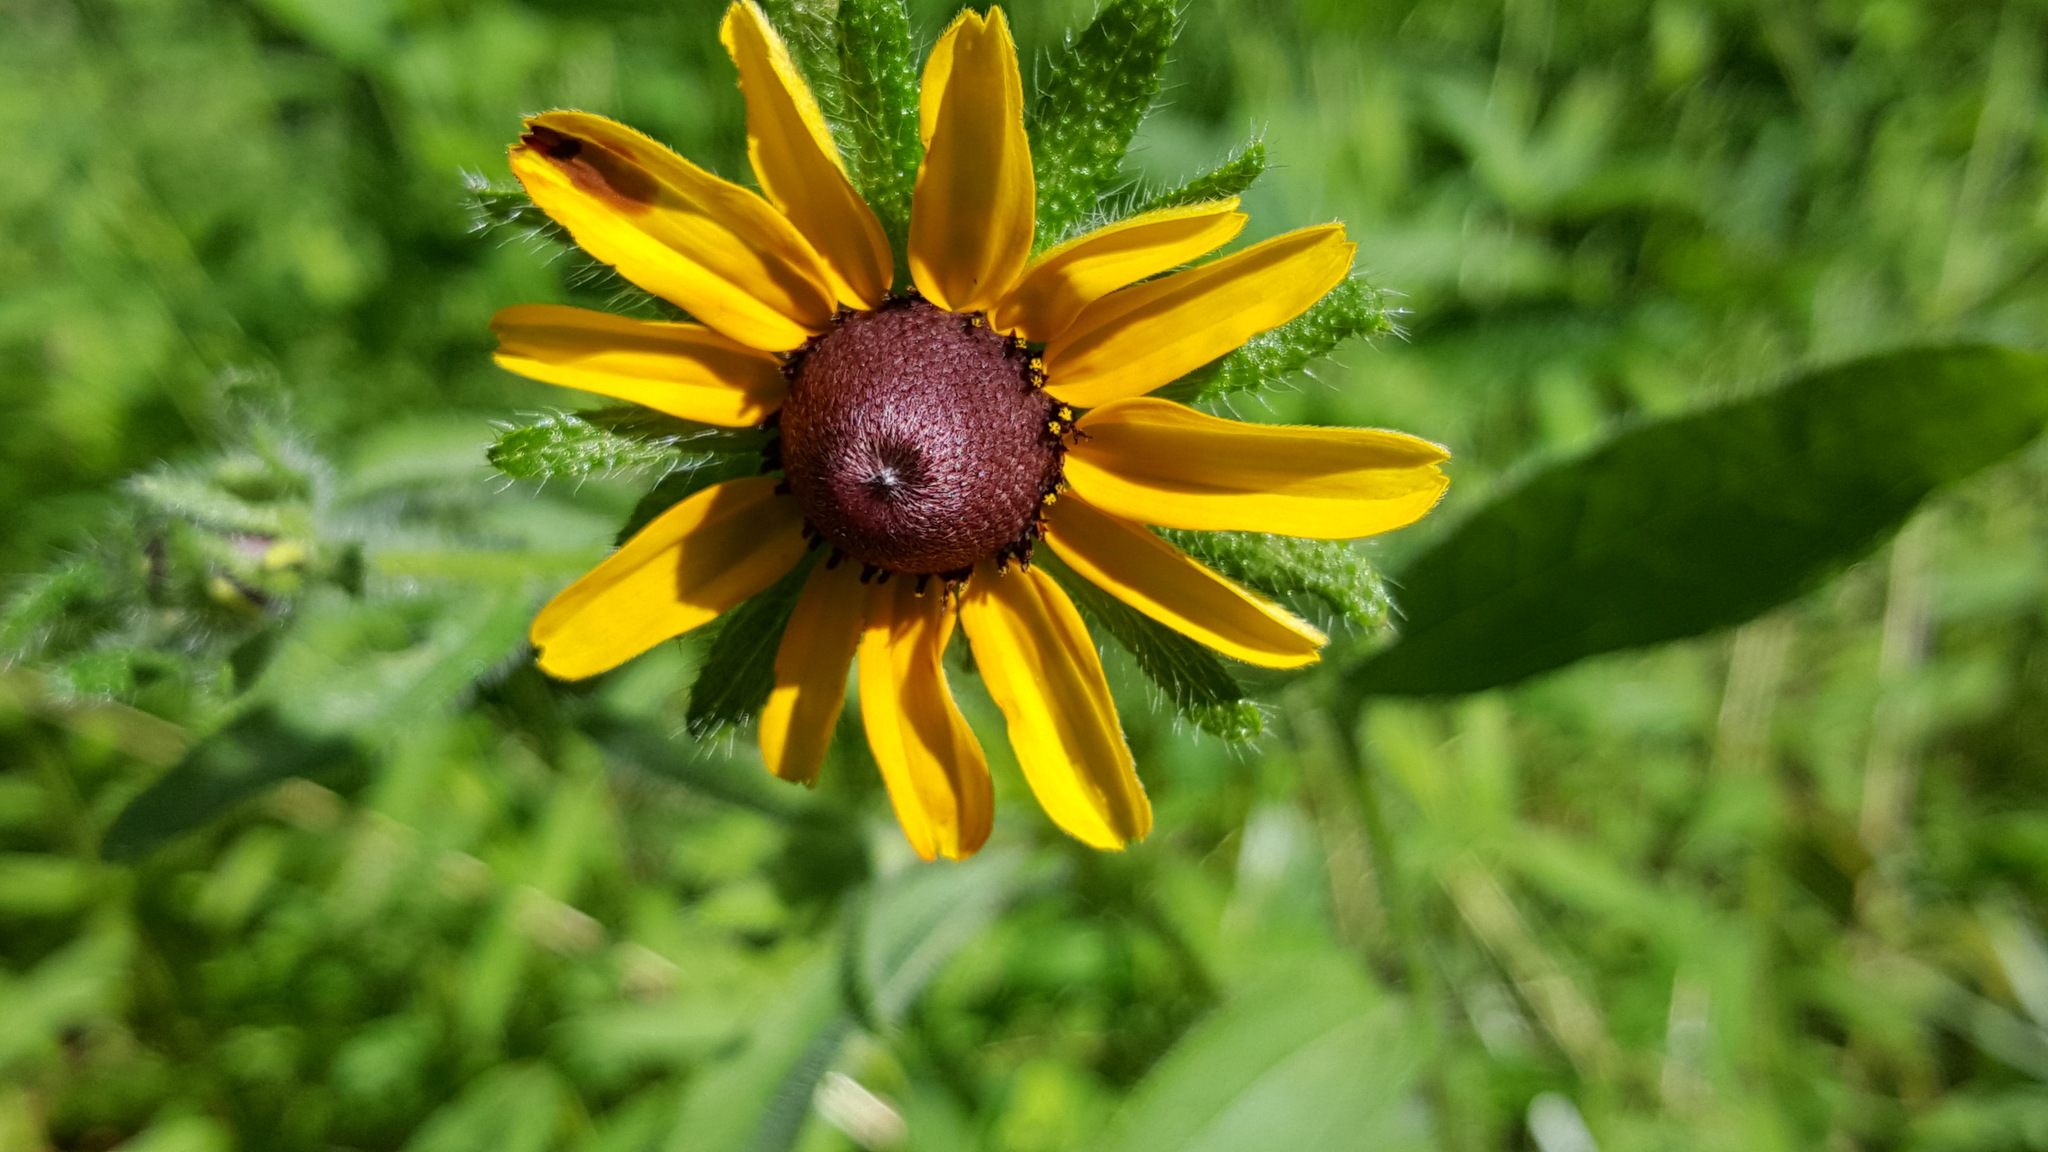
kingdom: Plantae
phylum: Tracheophyta
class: Magnoliopsida
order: Asterales
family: Asteraceae
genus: Rudbeckia
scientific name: Rudbeckia hirta
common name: Black-eyed-susan
